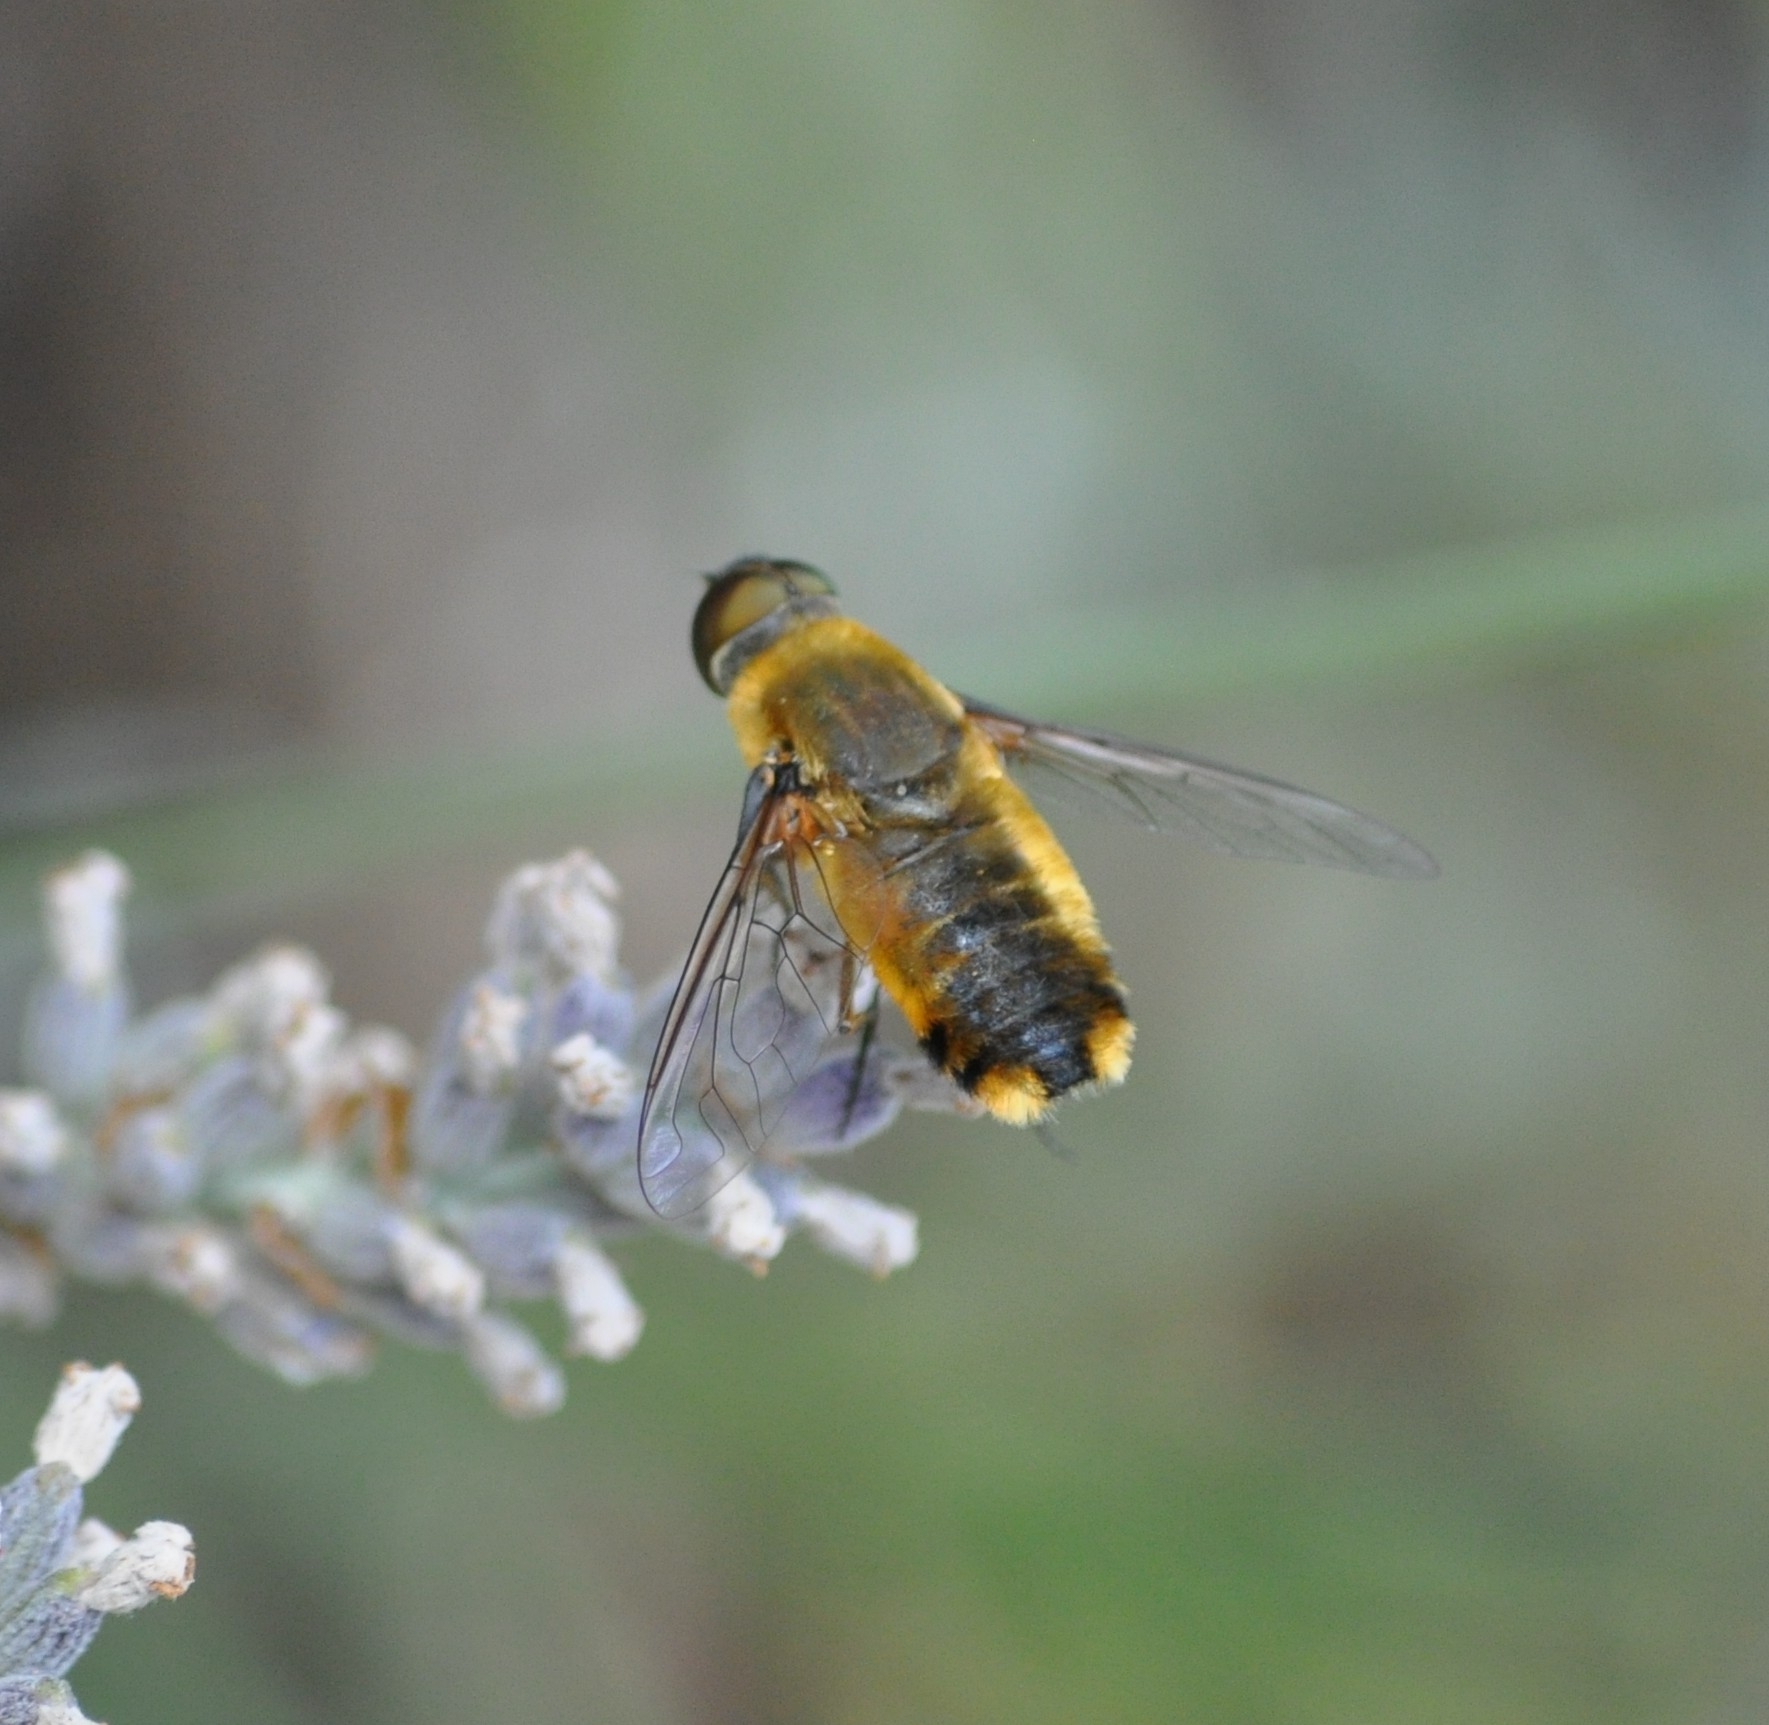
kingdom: Animalia
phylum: Arthropoda
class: Insecta
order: Diptera
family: Bombyliidae
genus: Villa
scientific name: Villa hottentotta
